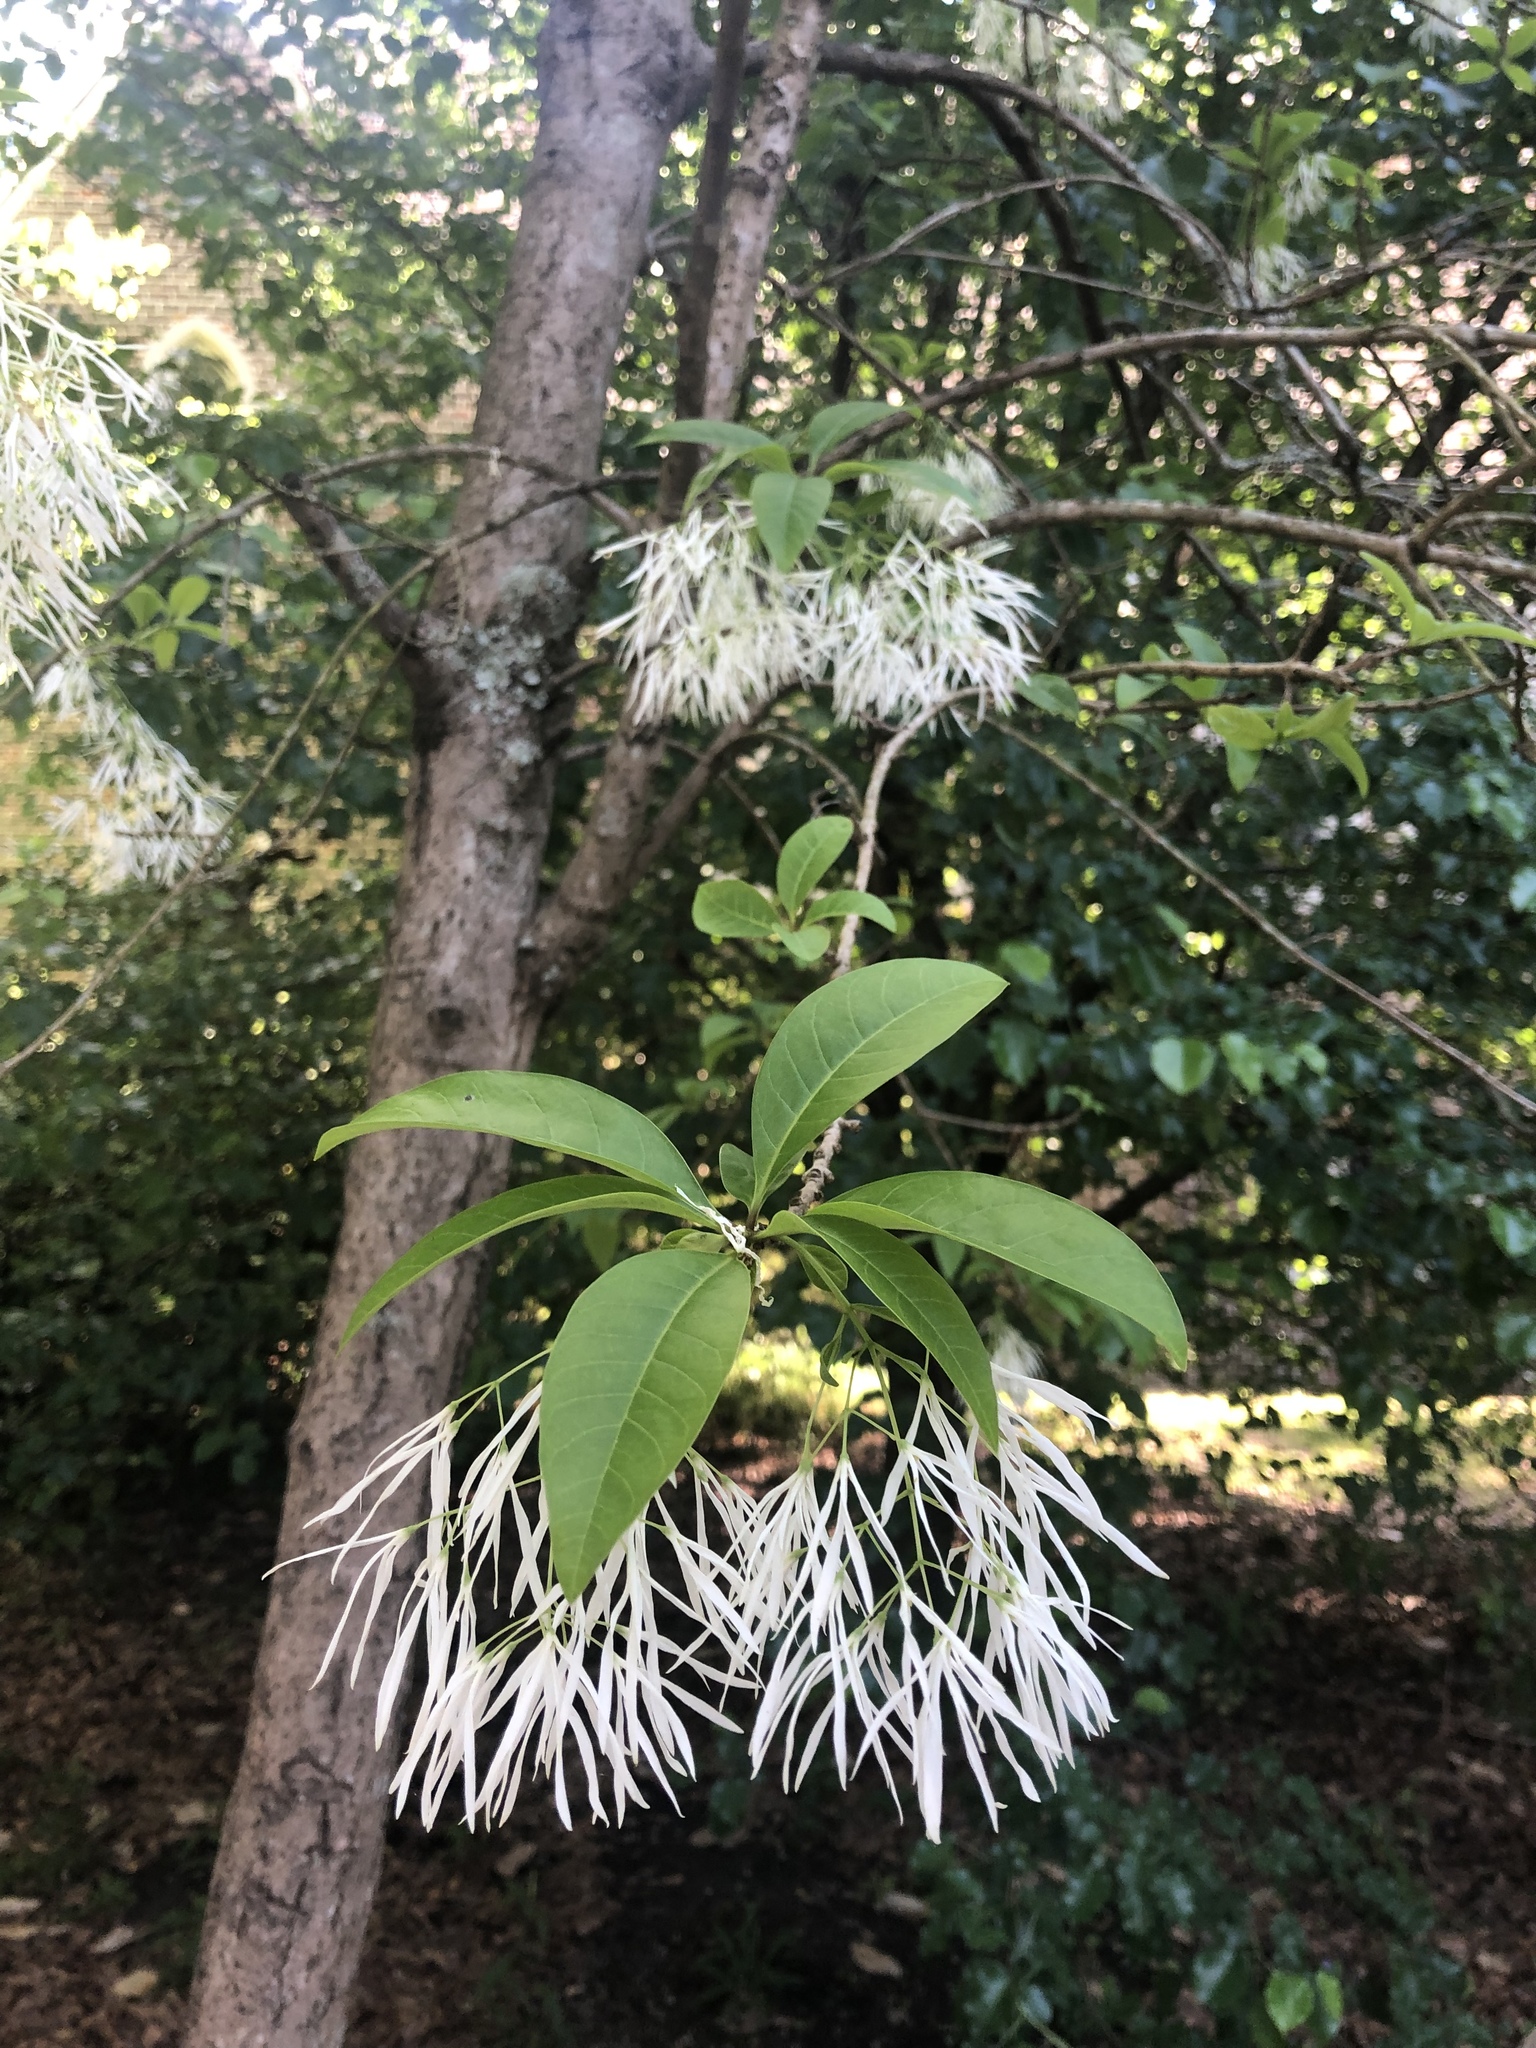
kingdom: Plantae
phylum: Tracheophyta
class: Magnoliopsida
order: Lamiales
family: Oleaceae
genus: Chionanthus
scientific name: Chionanthus virginicus
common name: American fringetree
